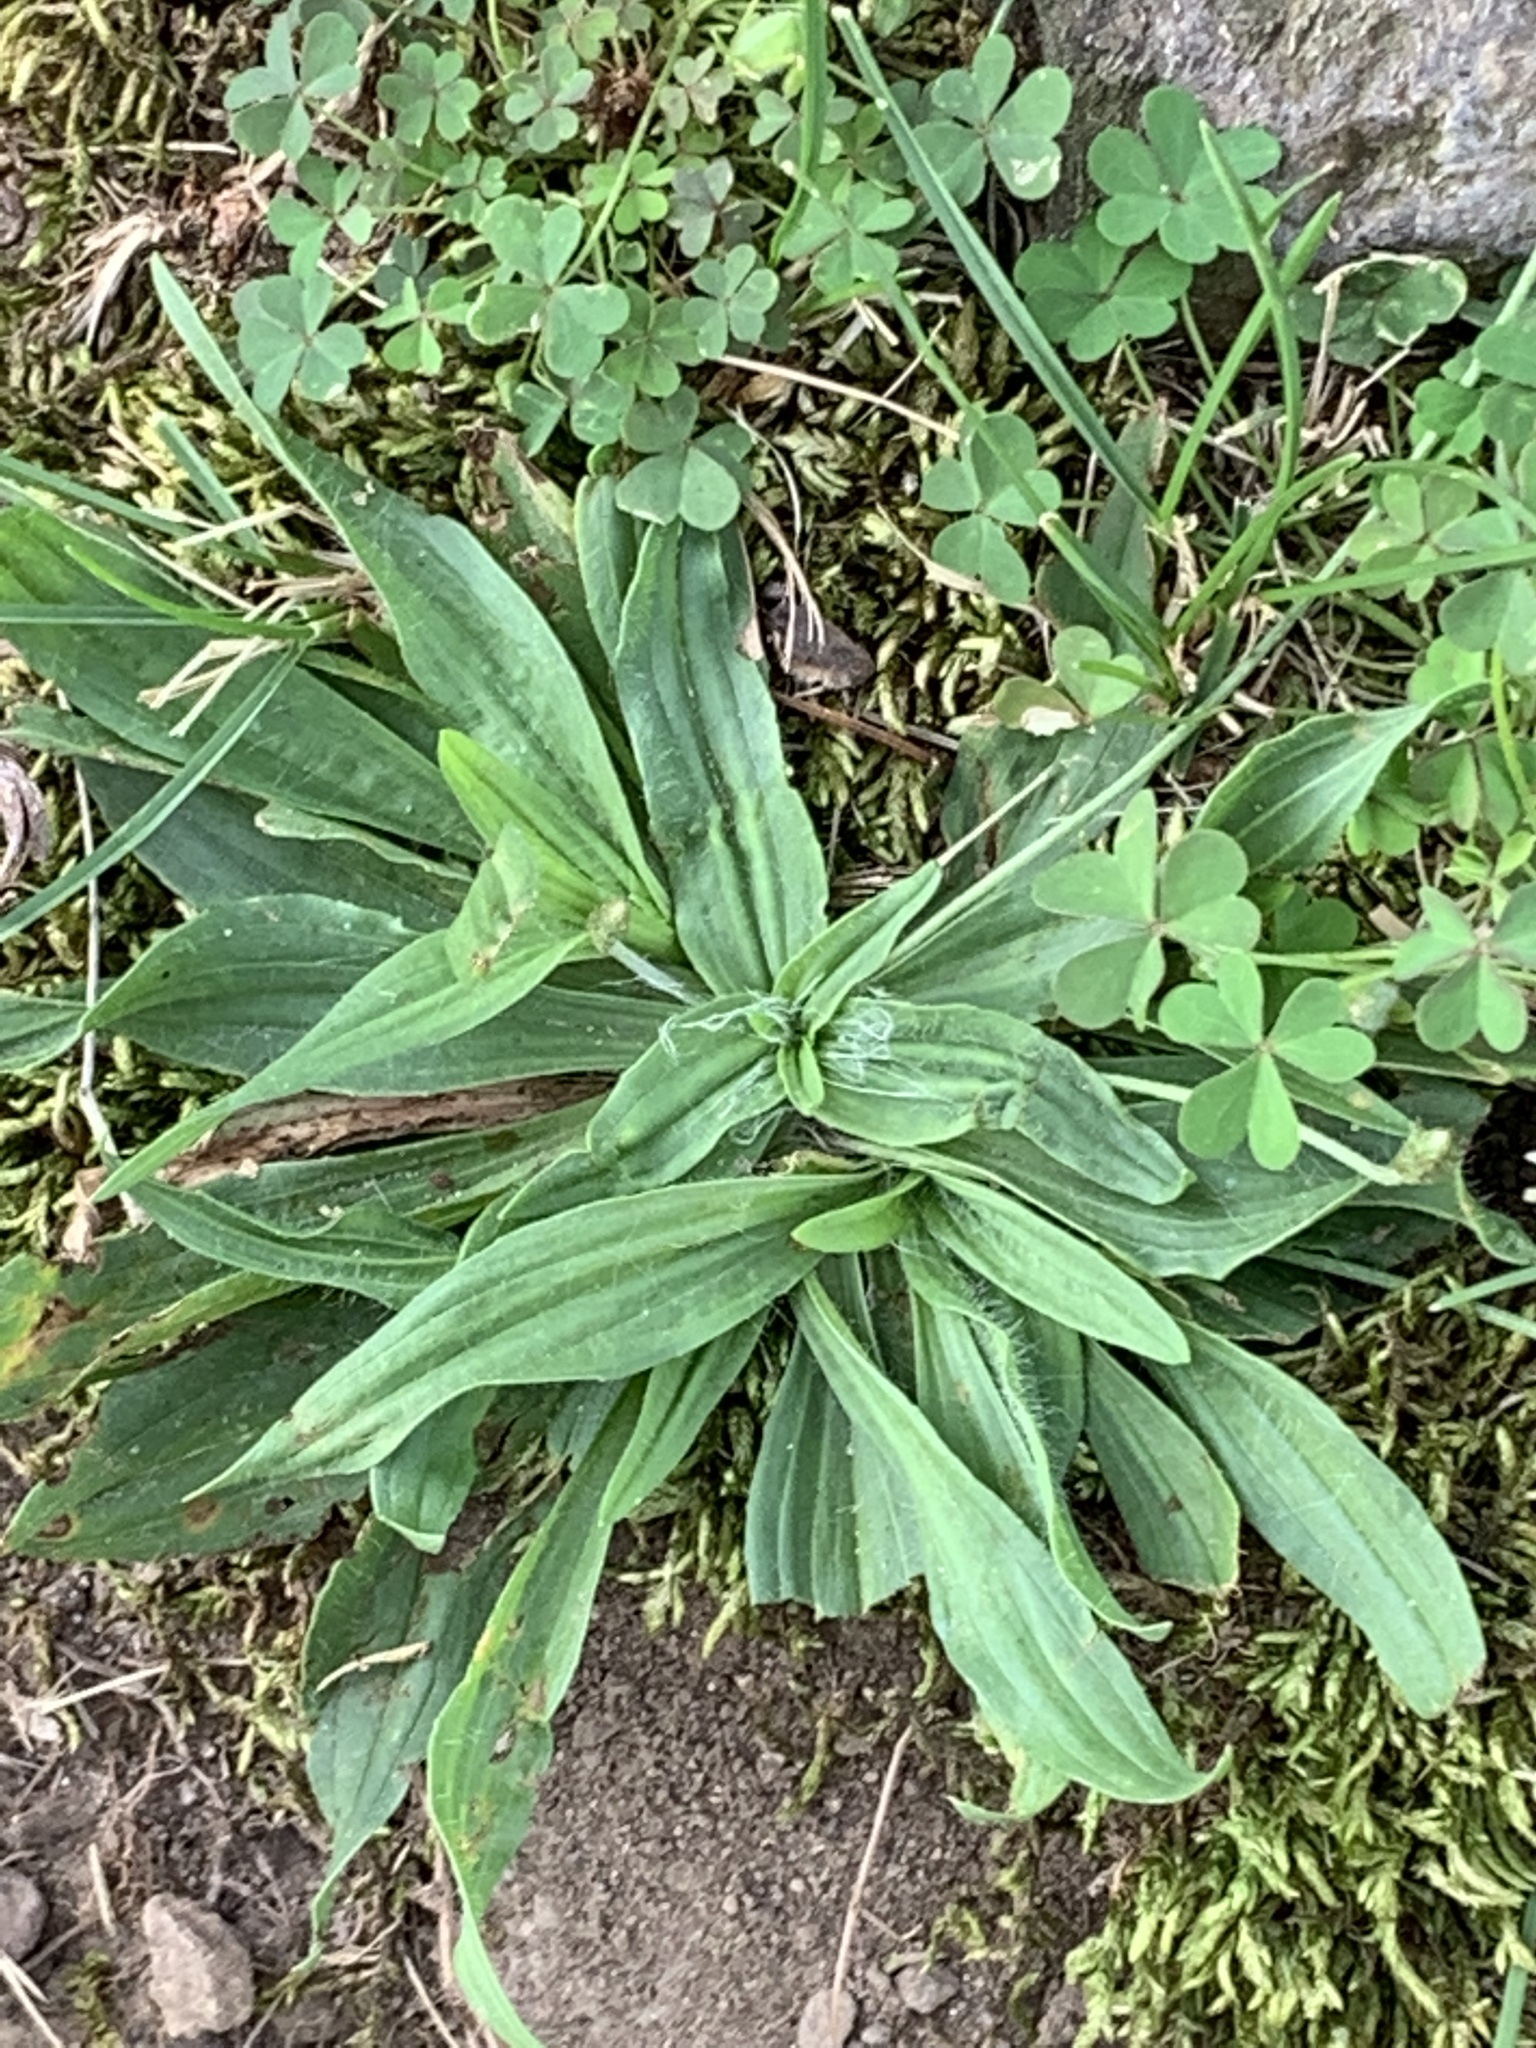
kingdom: Plantae
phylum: Tracheophyta
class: Magnoliopsida
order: Lamiales
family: Plantaginaceae
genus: Plantago
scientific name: Plantago lanceolata
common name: Ribwort plantain
